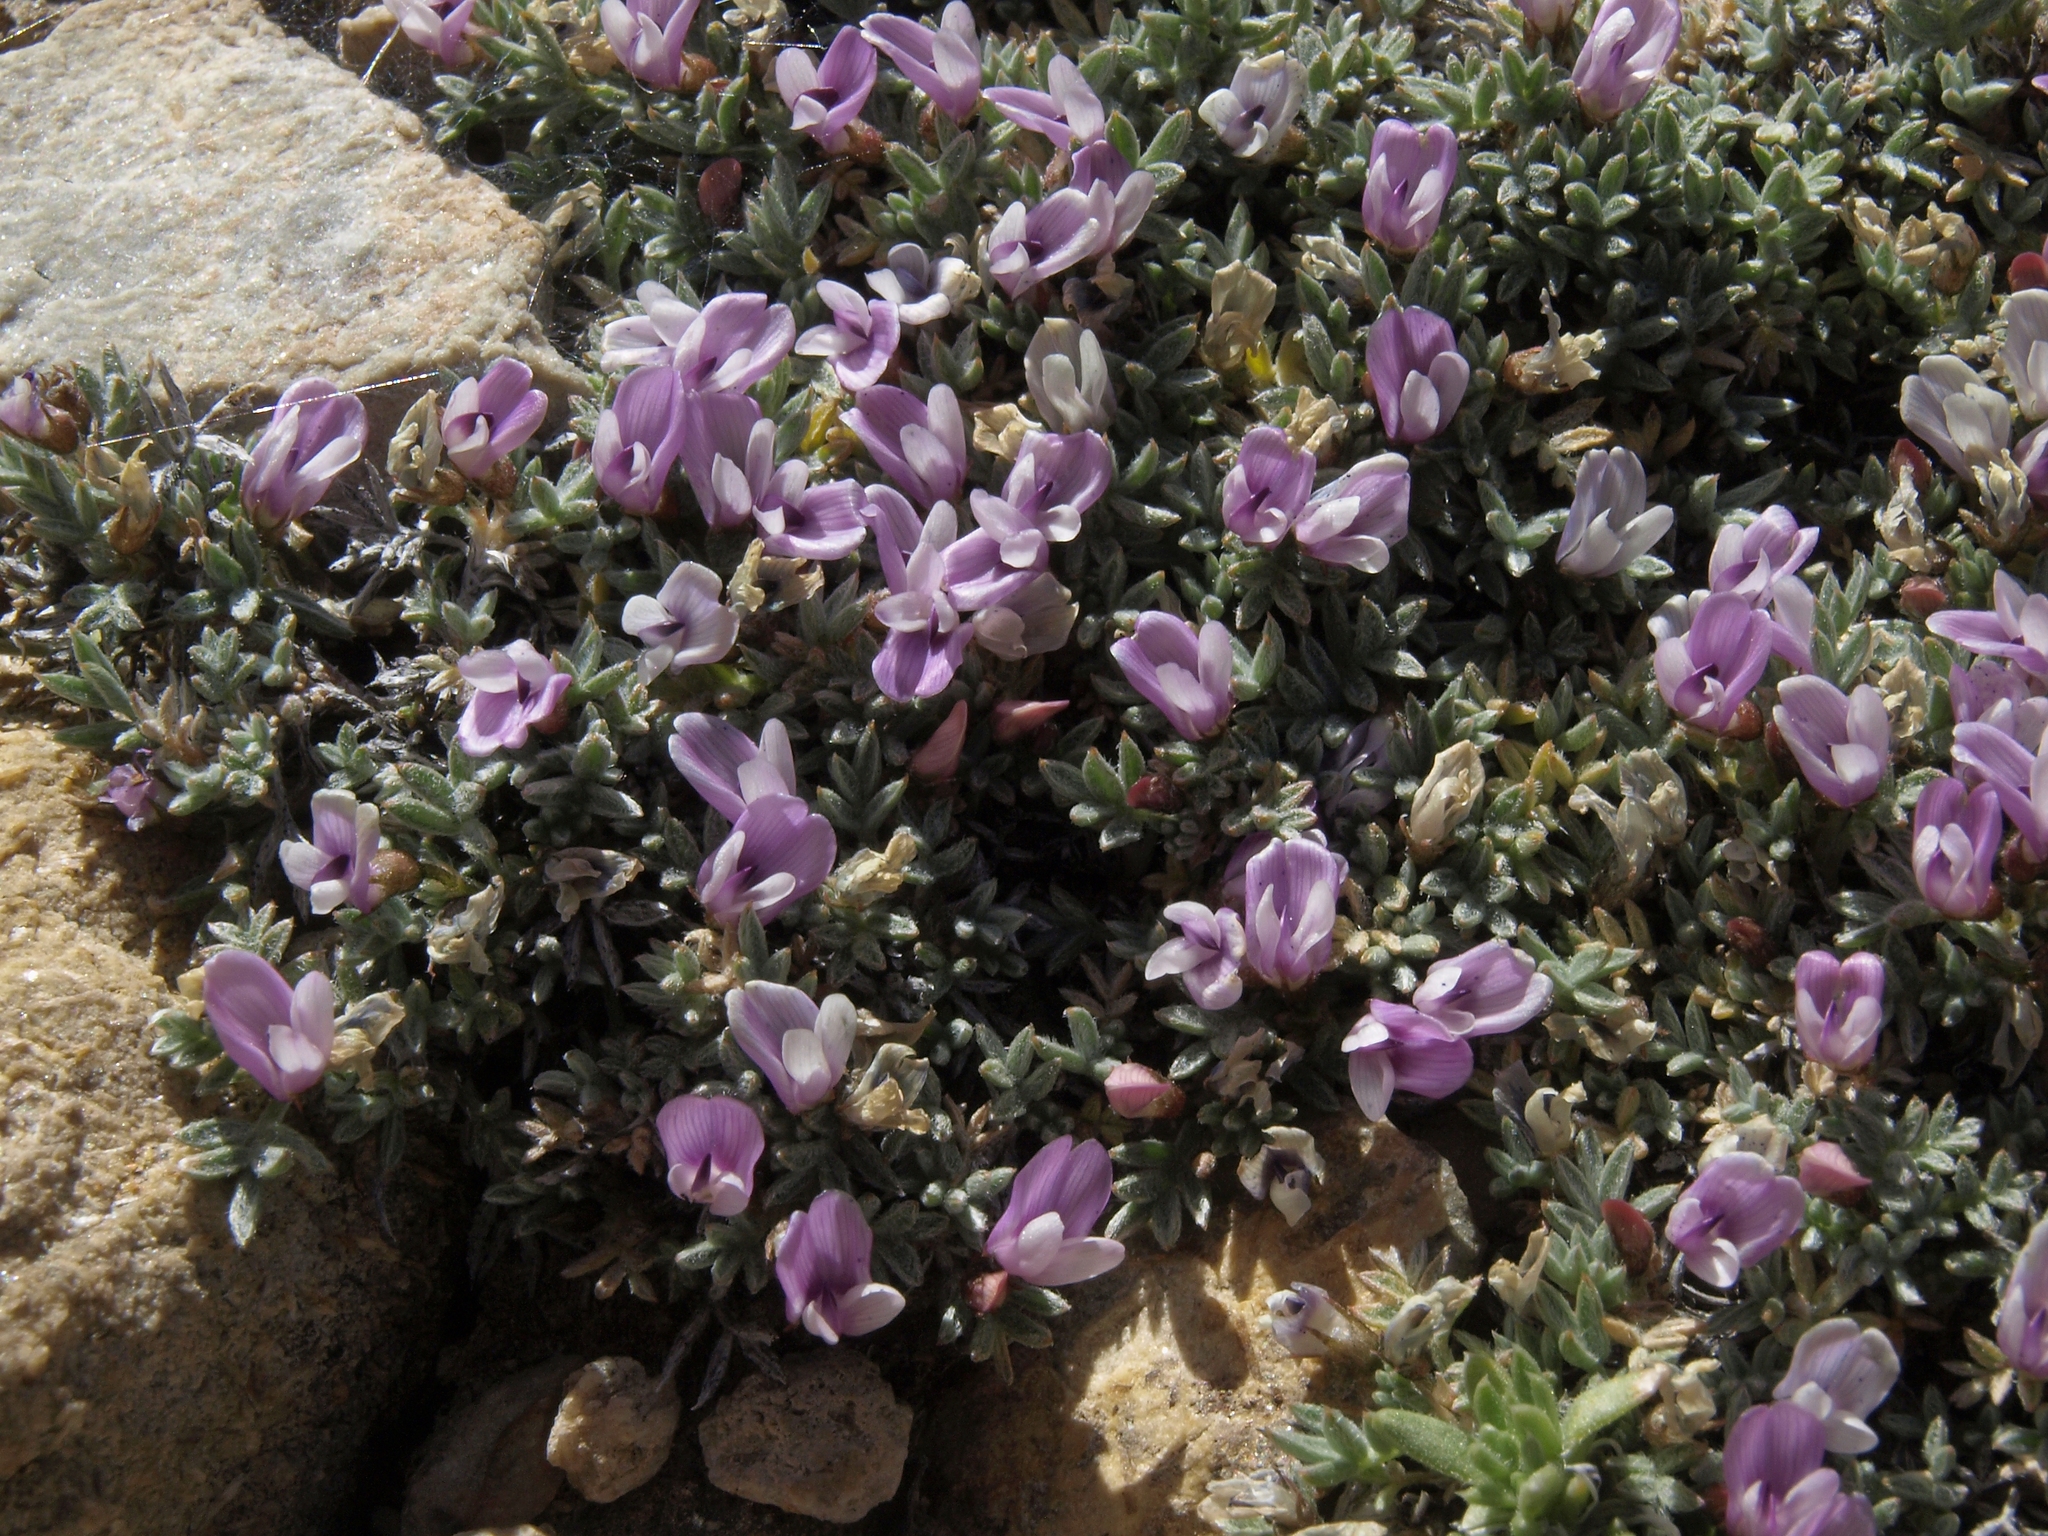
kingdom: Plantae
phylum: Tracheophyta
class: Magnoliopsida
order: Fabales
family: Fabaceae
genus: Astragalus
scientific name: Astragalus kentrophyta
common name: Prickly milk-vetch
